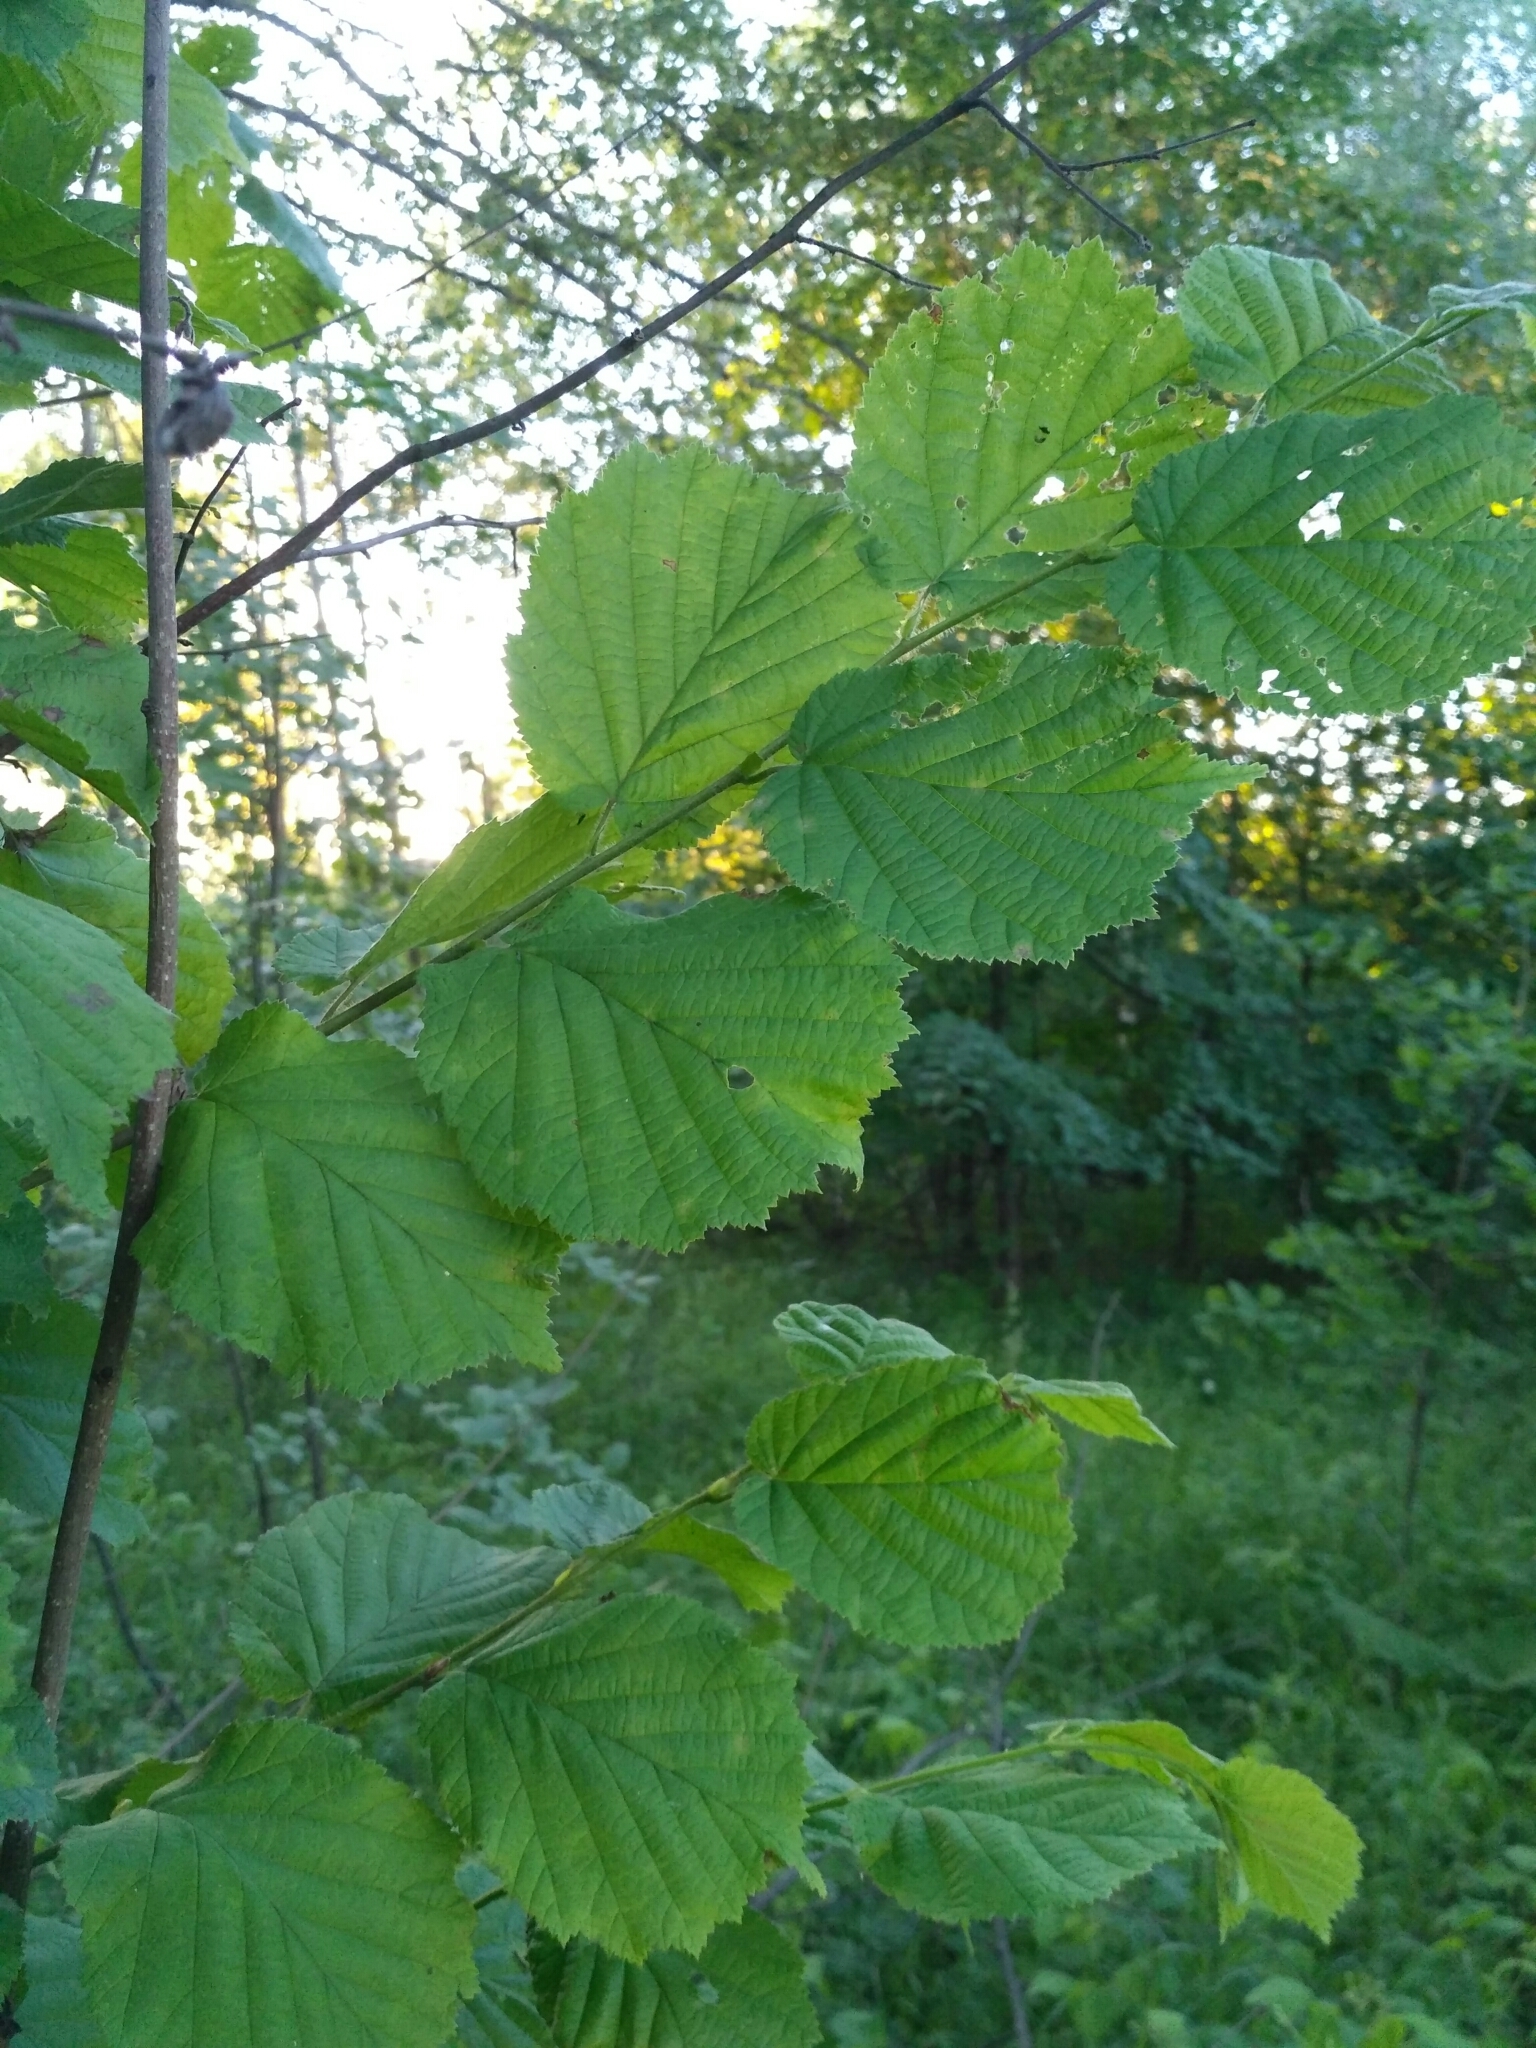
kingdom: Plantae
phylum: Tracheophyta
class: Magnoliopsida
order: Fagales
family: Betulaceae
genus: Corylus
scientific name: Corylus avellana
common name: European hazel
